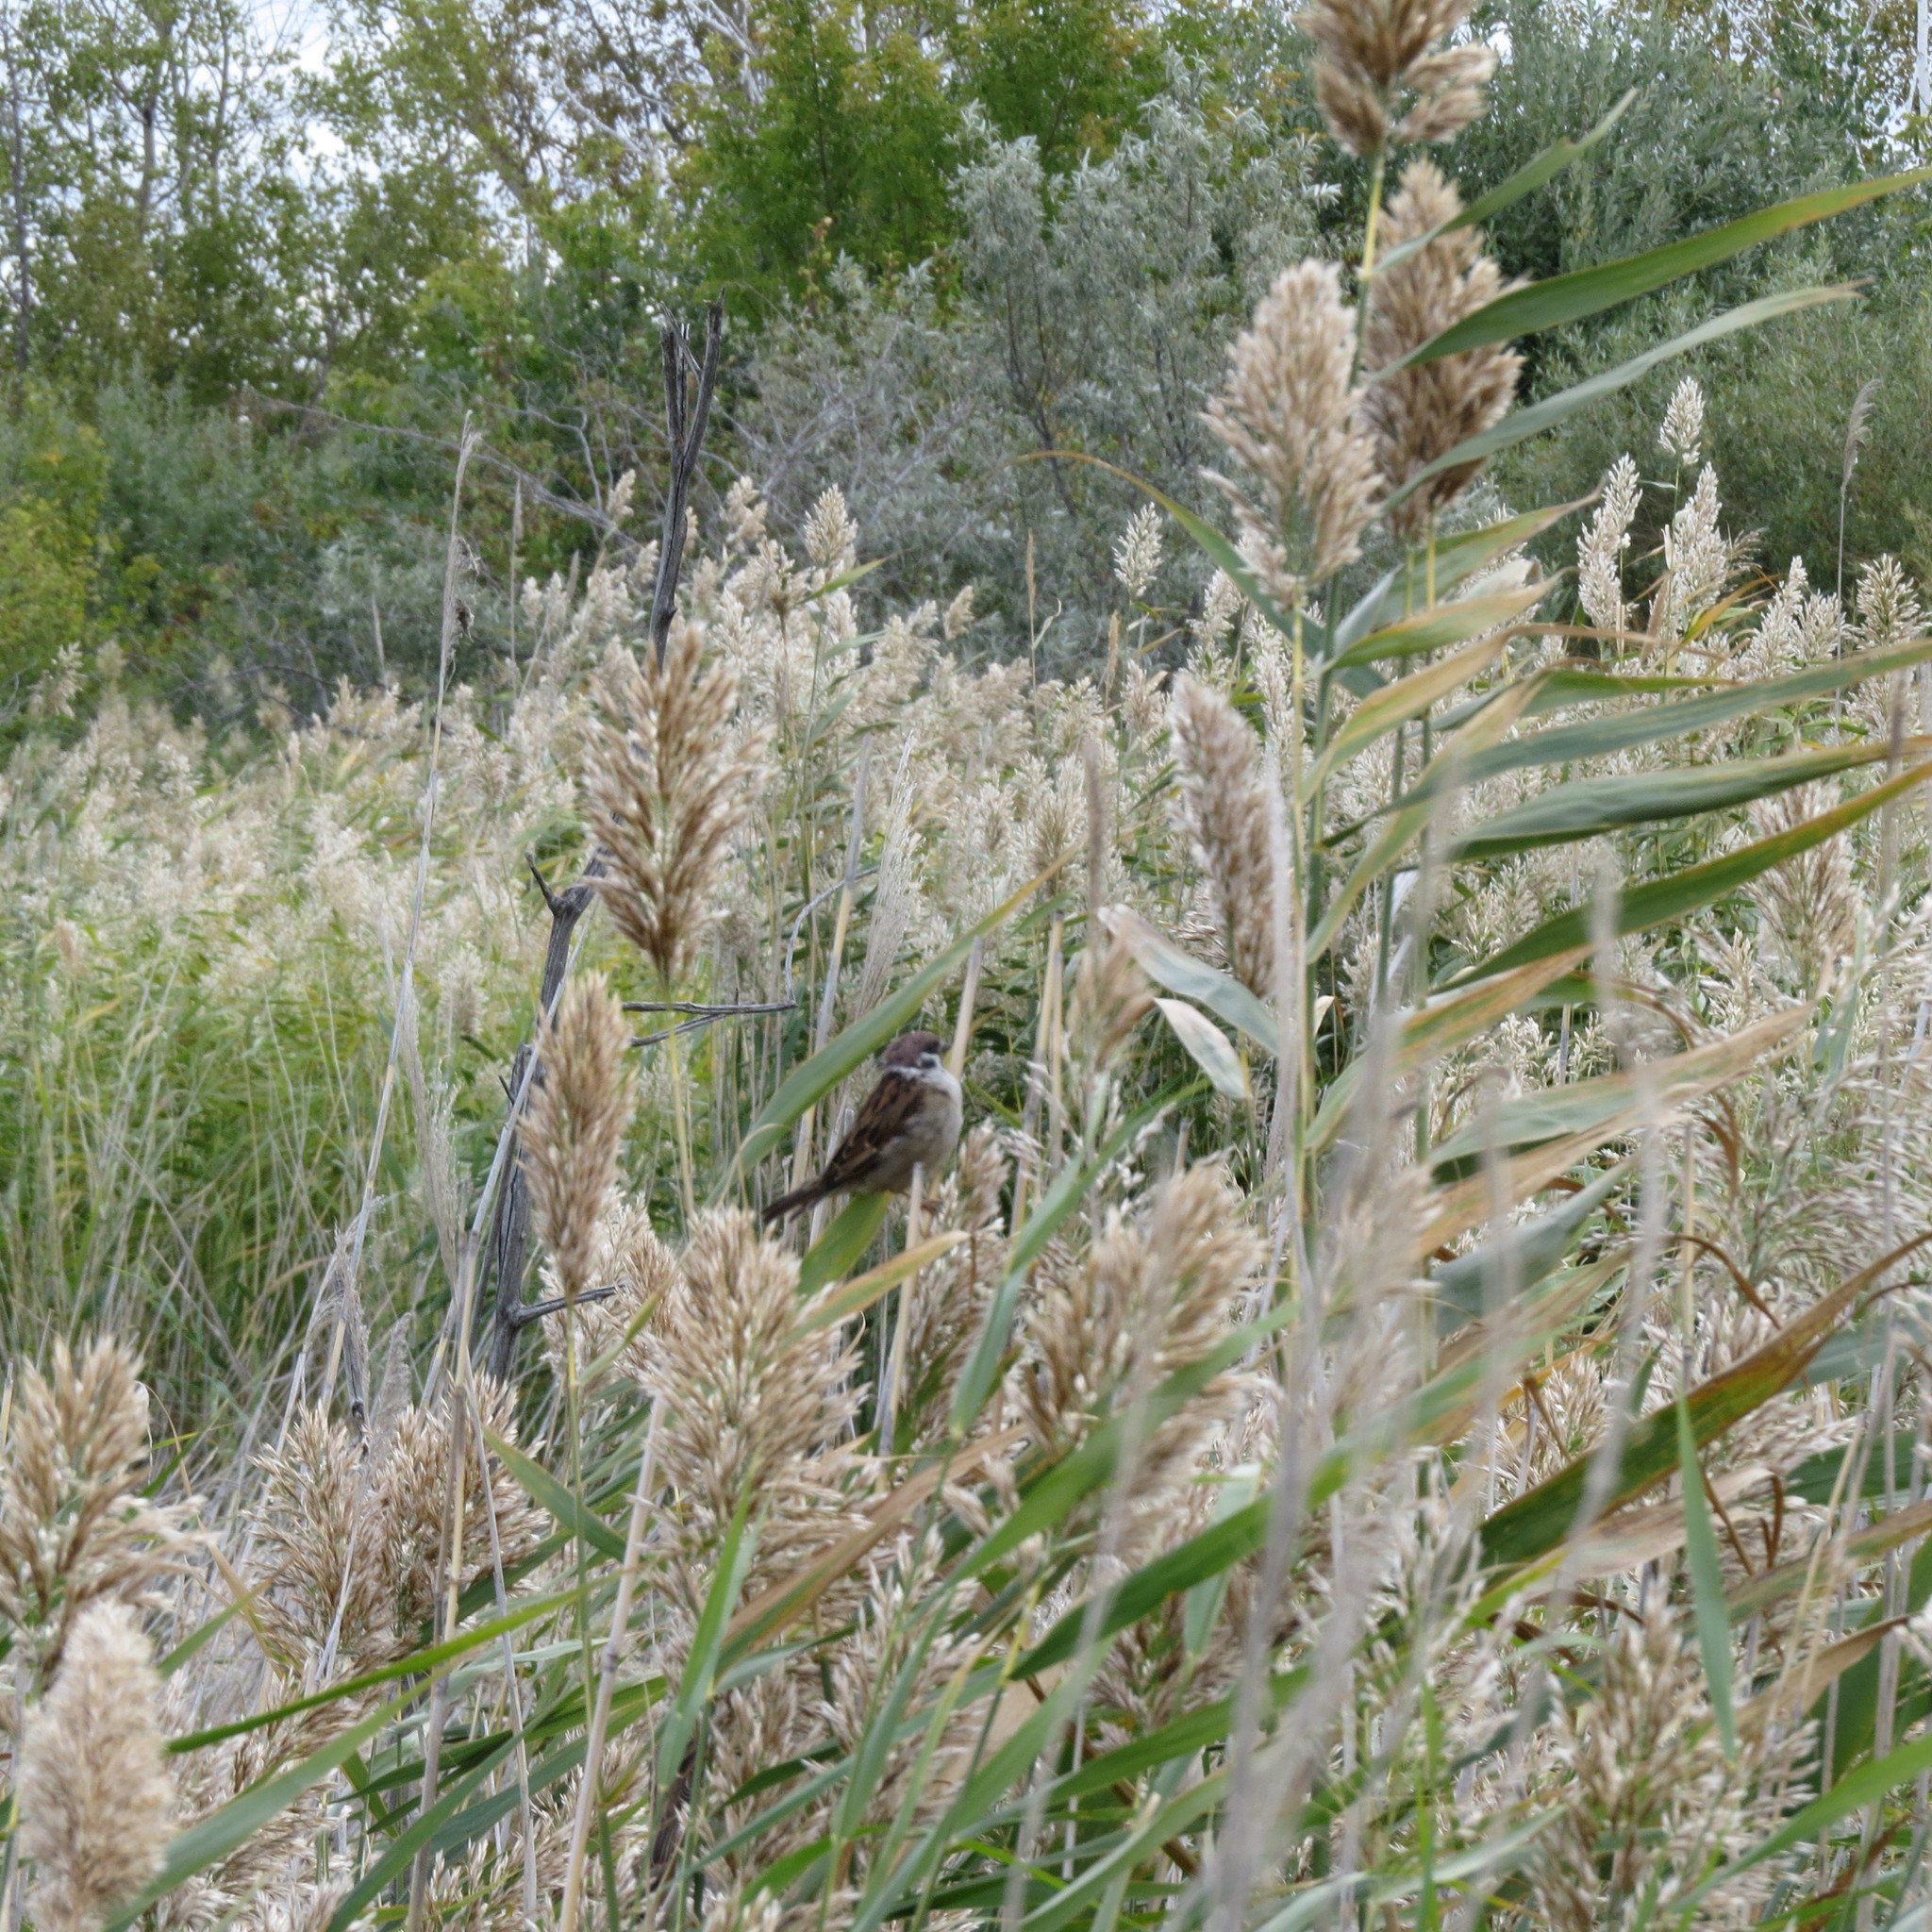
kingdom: Animalia
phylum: Chordata
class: Aves
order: Passeriformes
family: Passeridae
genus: Passer
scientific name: Passer montanus
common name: Eurasian tree sparrow
